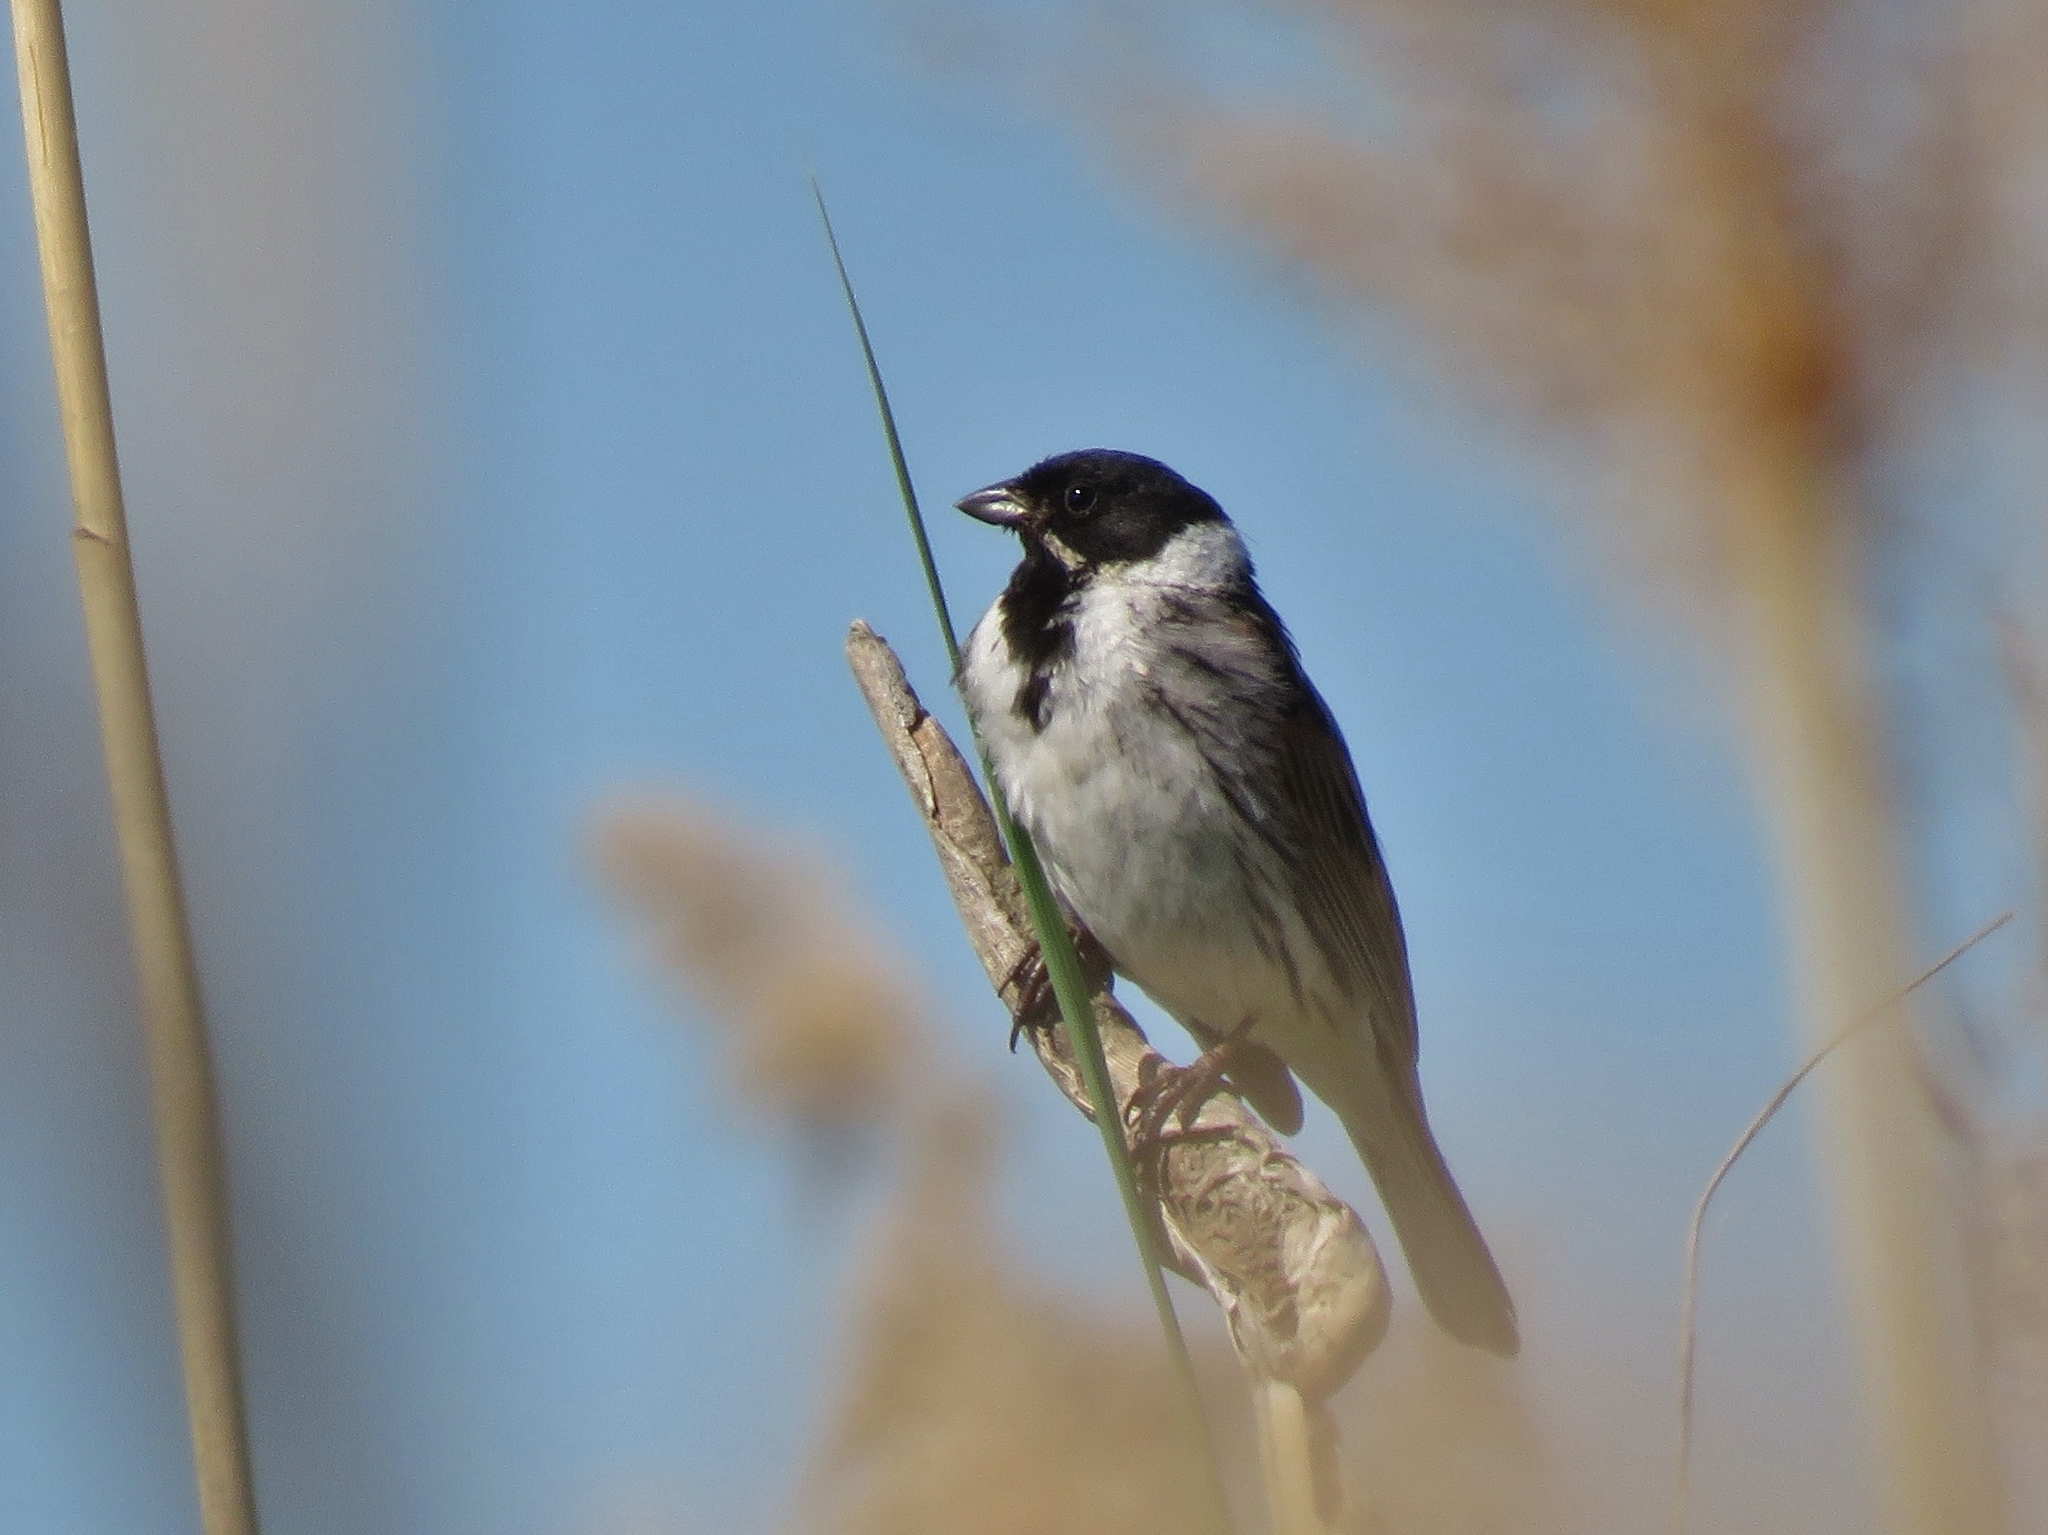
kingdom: Animalia
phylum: Chordata
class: Aves
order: Passeriformes
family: Emberizidae
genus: Emberiza
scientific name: Emberiza schoeniclus
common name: Reed bunting
